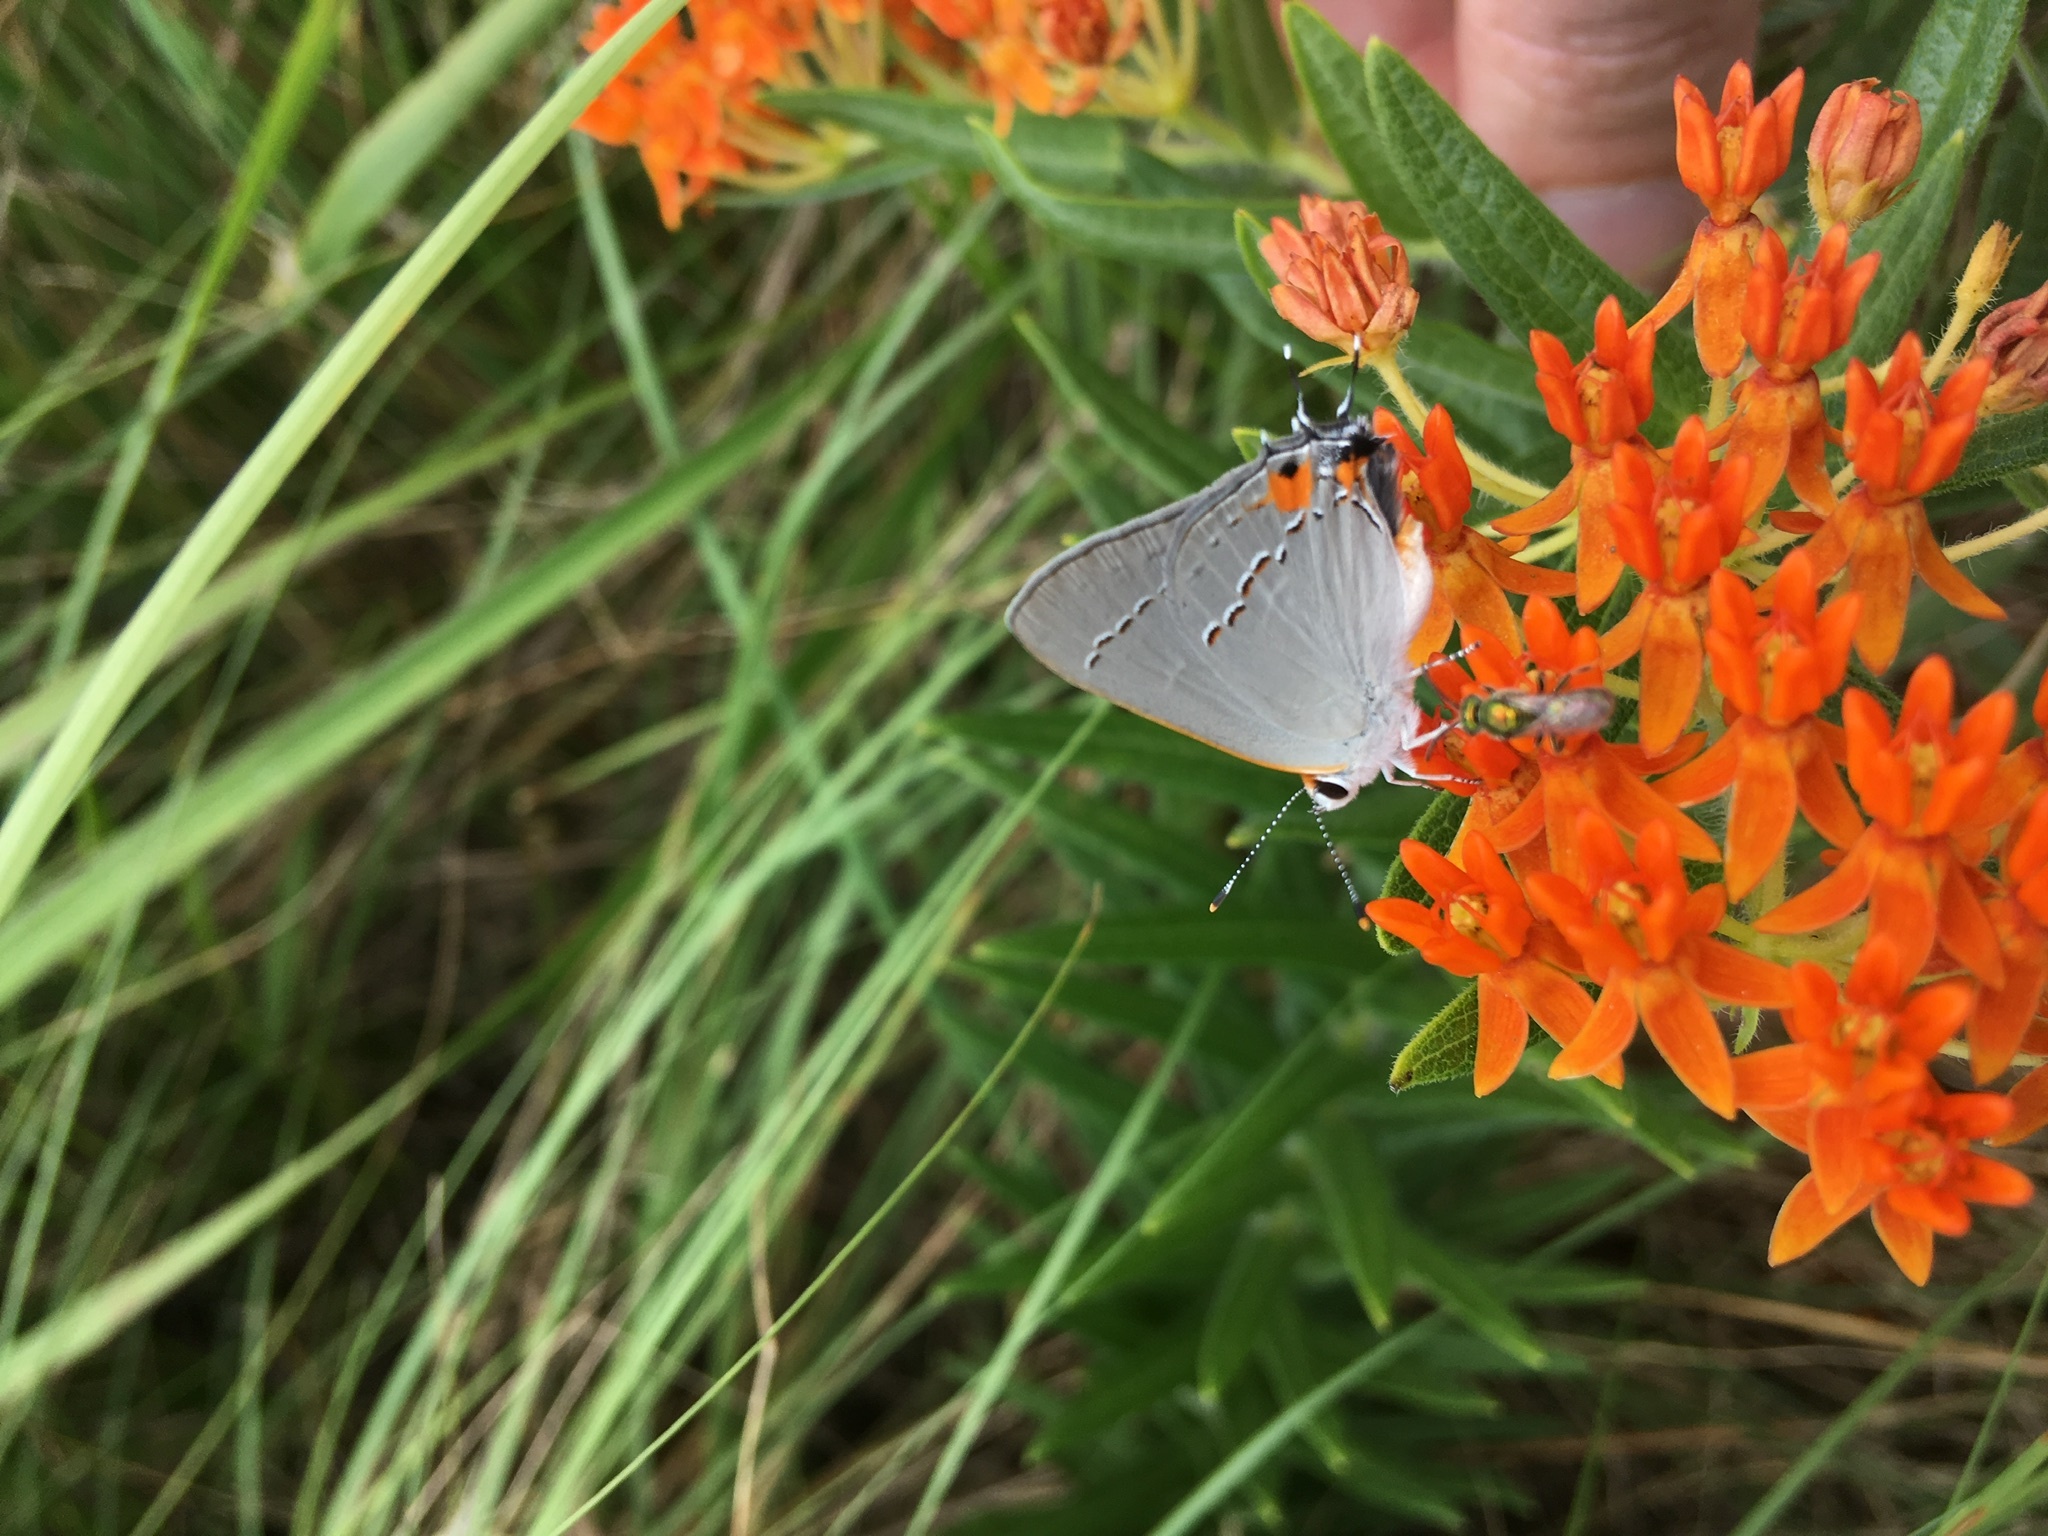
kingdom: Animalia
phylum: Arthropoda
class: Insecta
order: Lepidoptera
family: Lycaenidae
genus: Strymon
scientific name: Strymon melinus
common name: Gray hairstreak
